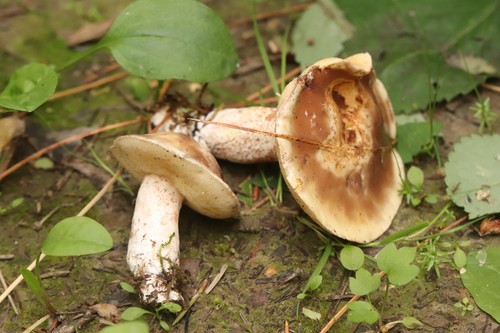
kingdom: Fungi
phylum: Basidiomycota
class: Agaricomycetes
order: Boletales
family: Suillaceae
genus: Suillus
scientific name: Suillus placidus
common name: Slippery white bolete
